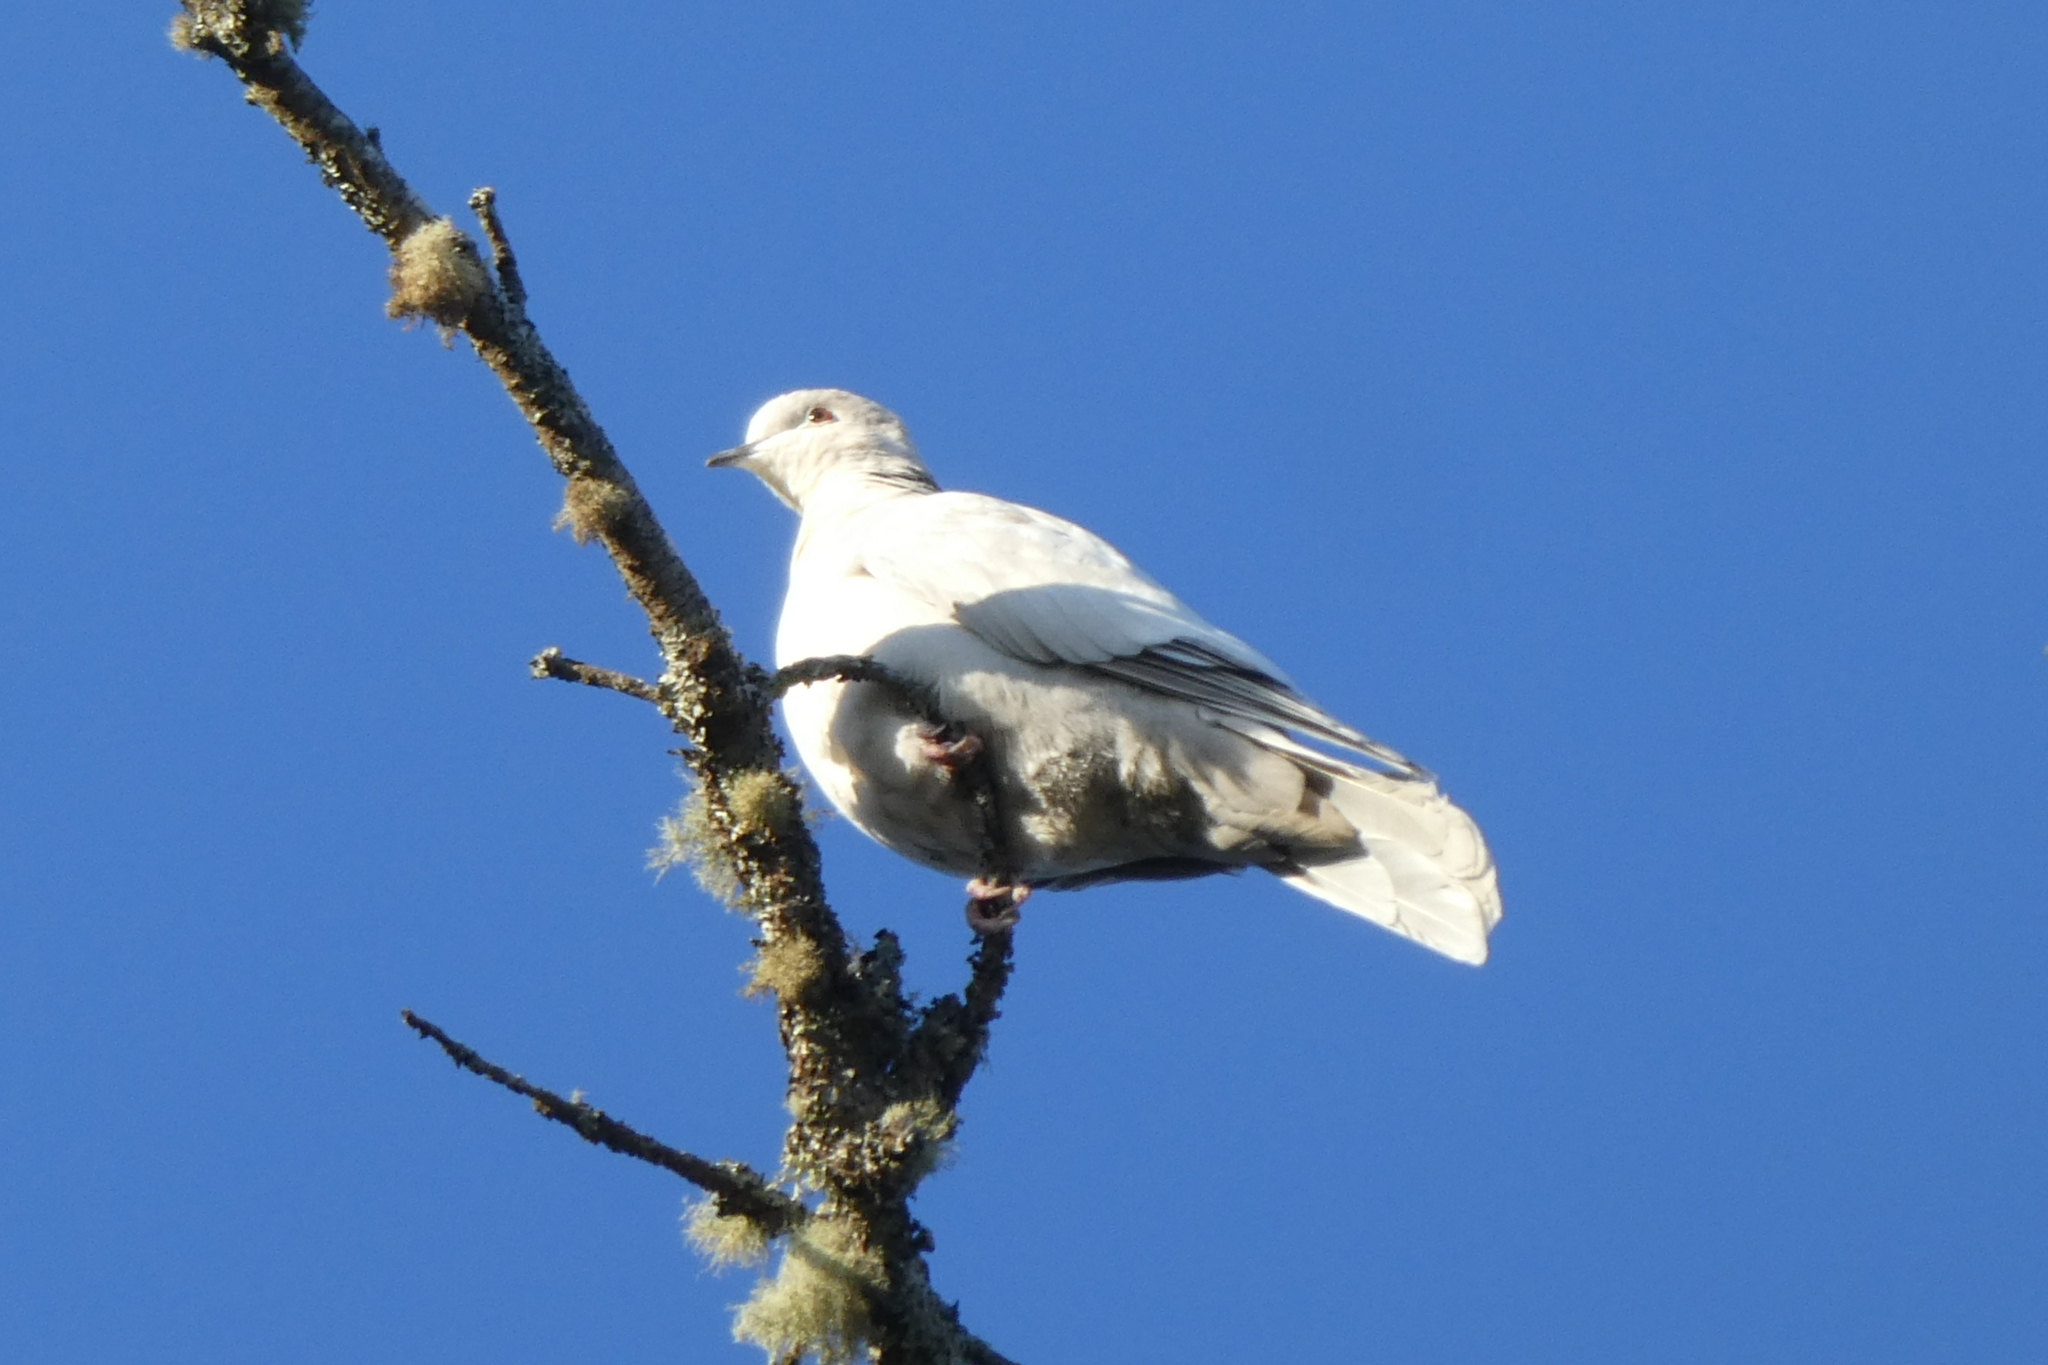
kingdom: Animalia
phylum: Chordata
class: Aves
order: Columbiformes
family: Columbidae
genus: Streptopelia
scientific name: Streptopelia decaocto
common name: Eurasian collared dove
